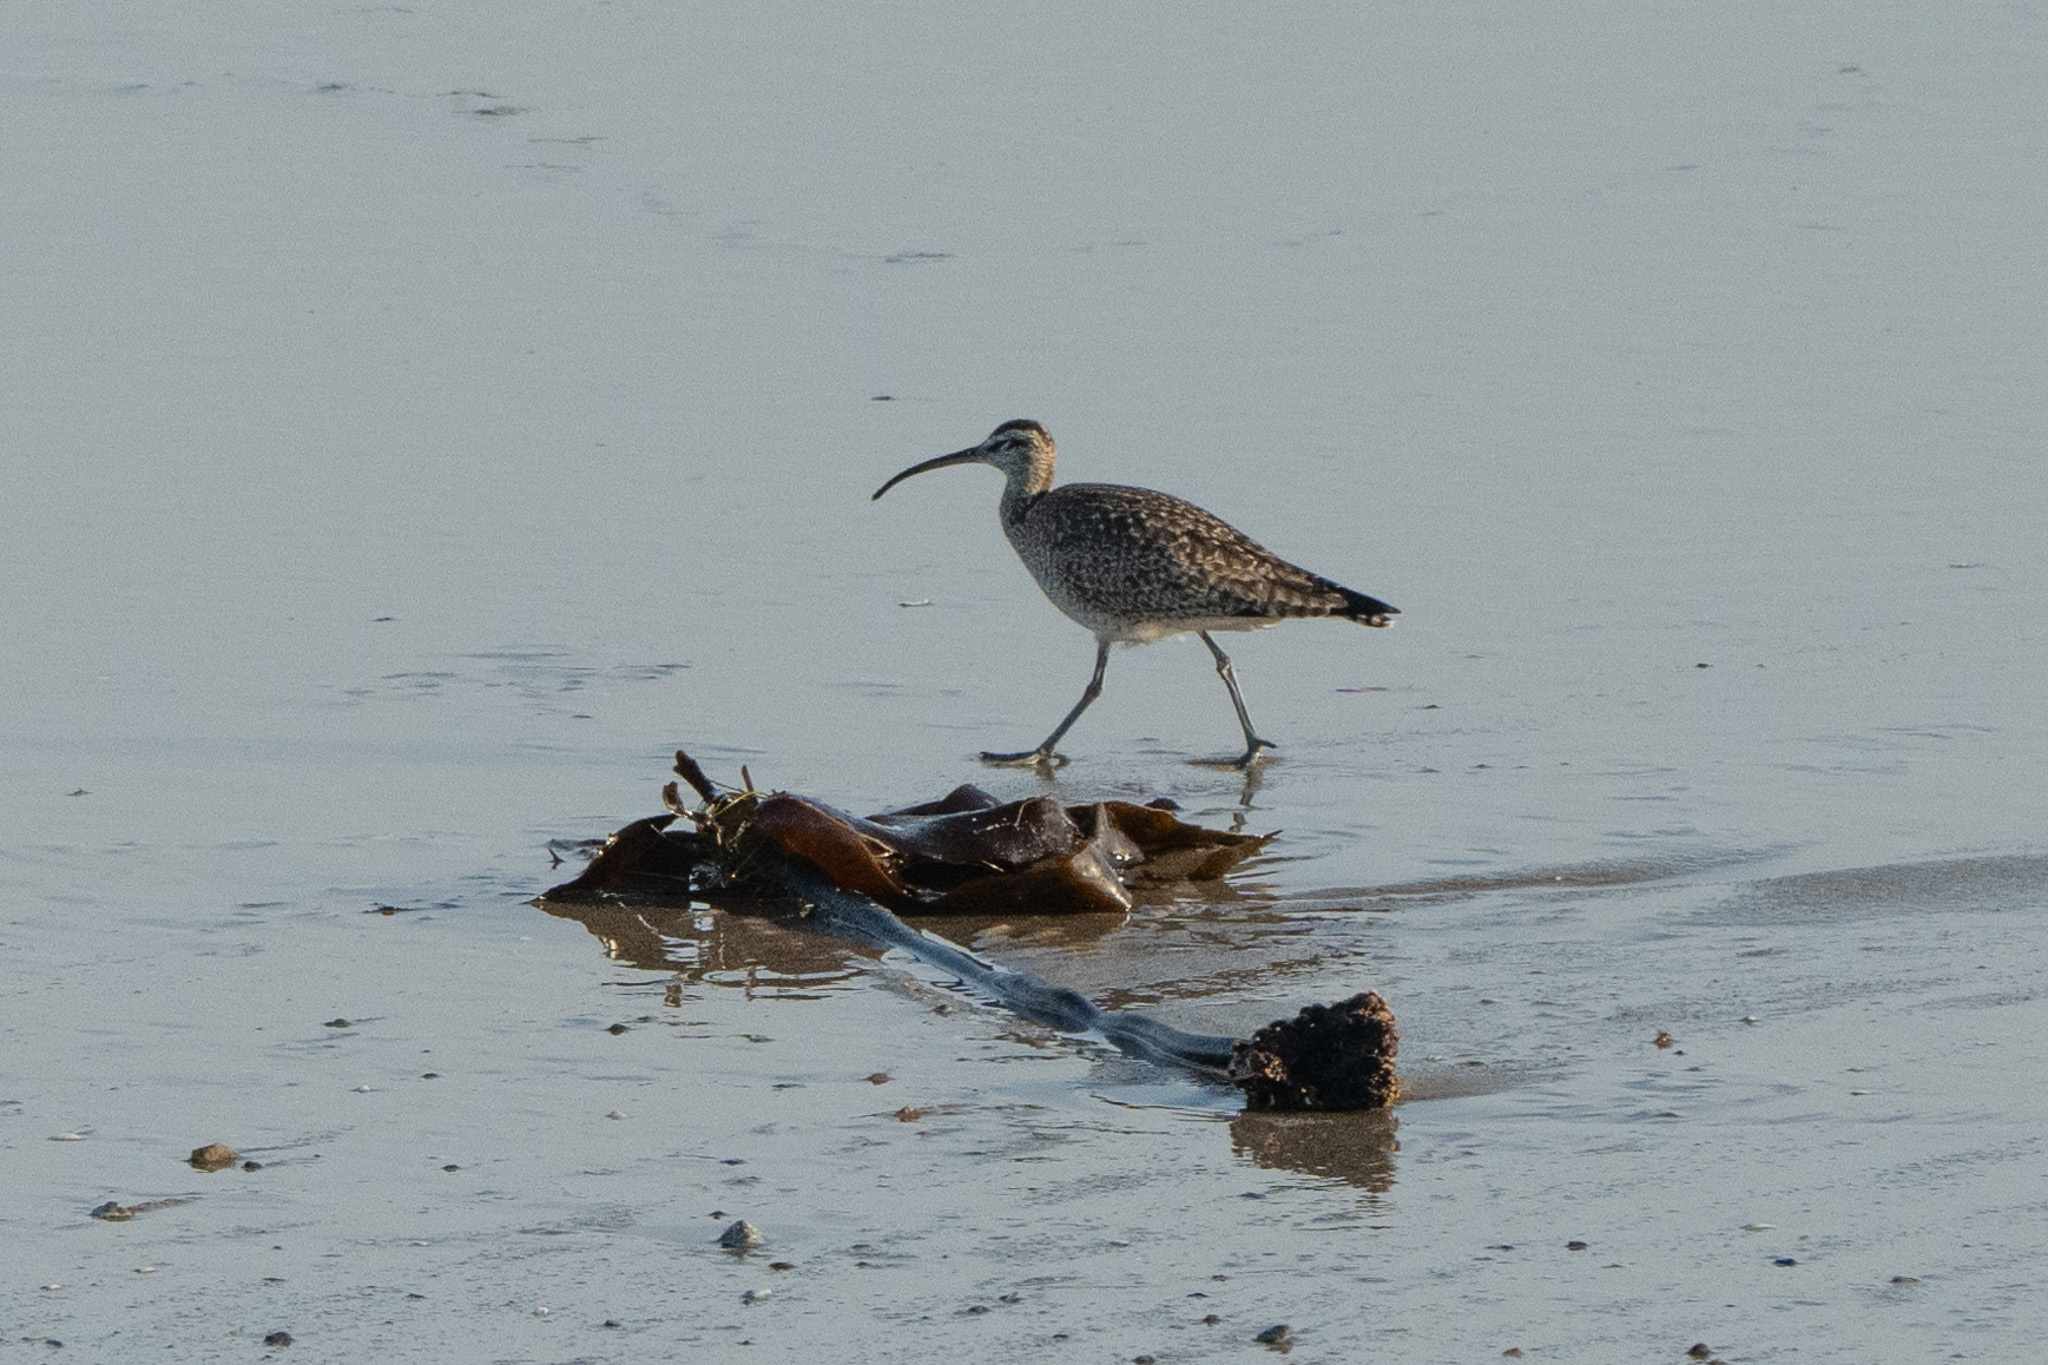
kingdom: Animalia
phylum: Chordata
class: Aves
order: Charadriiformes
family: Scolopacidae
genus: Numenius
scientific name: Numenius phaeopus
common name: Whimbrel
